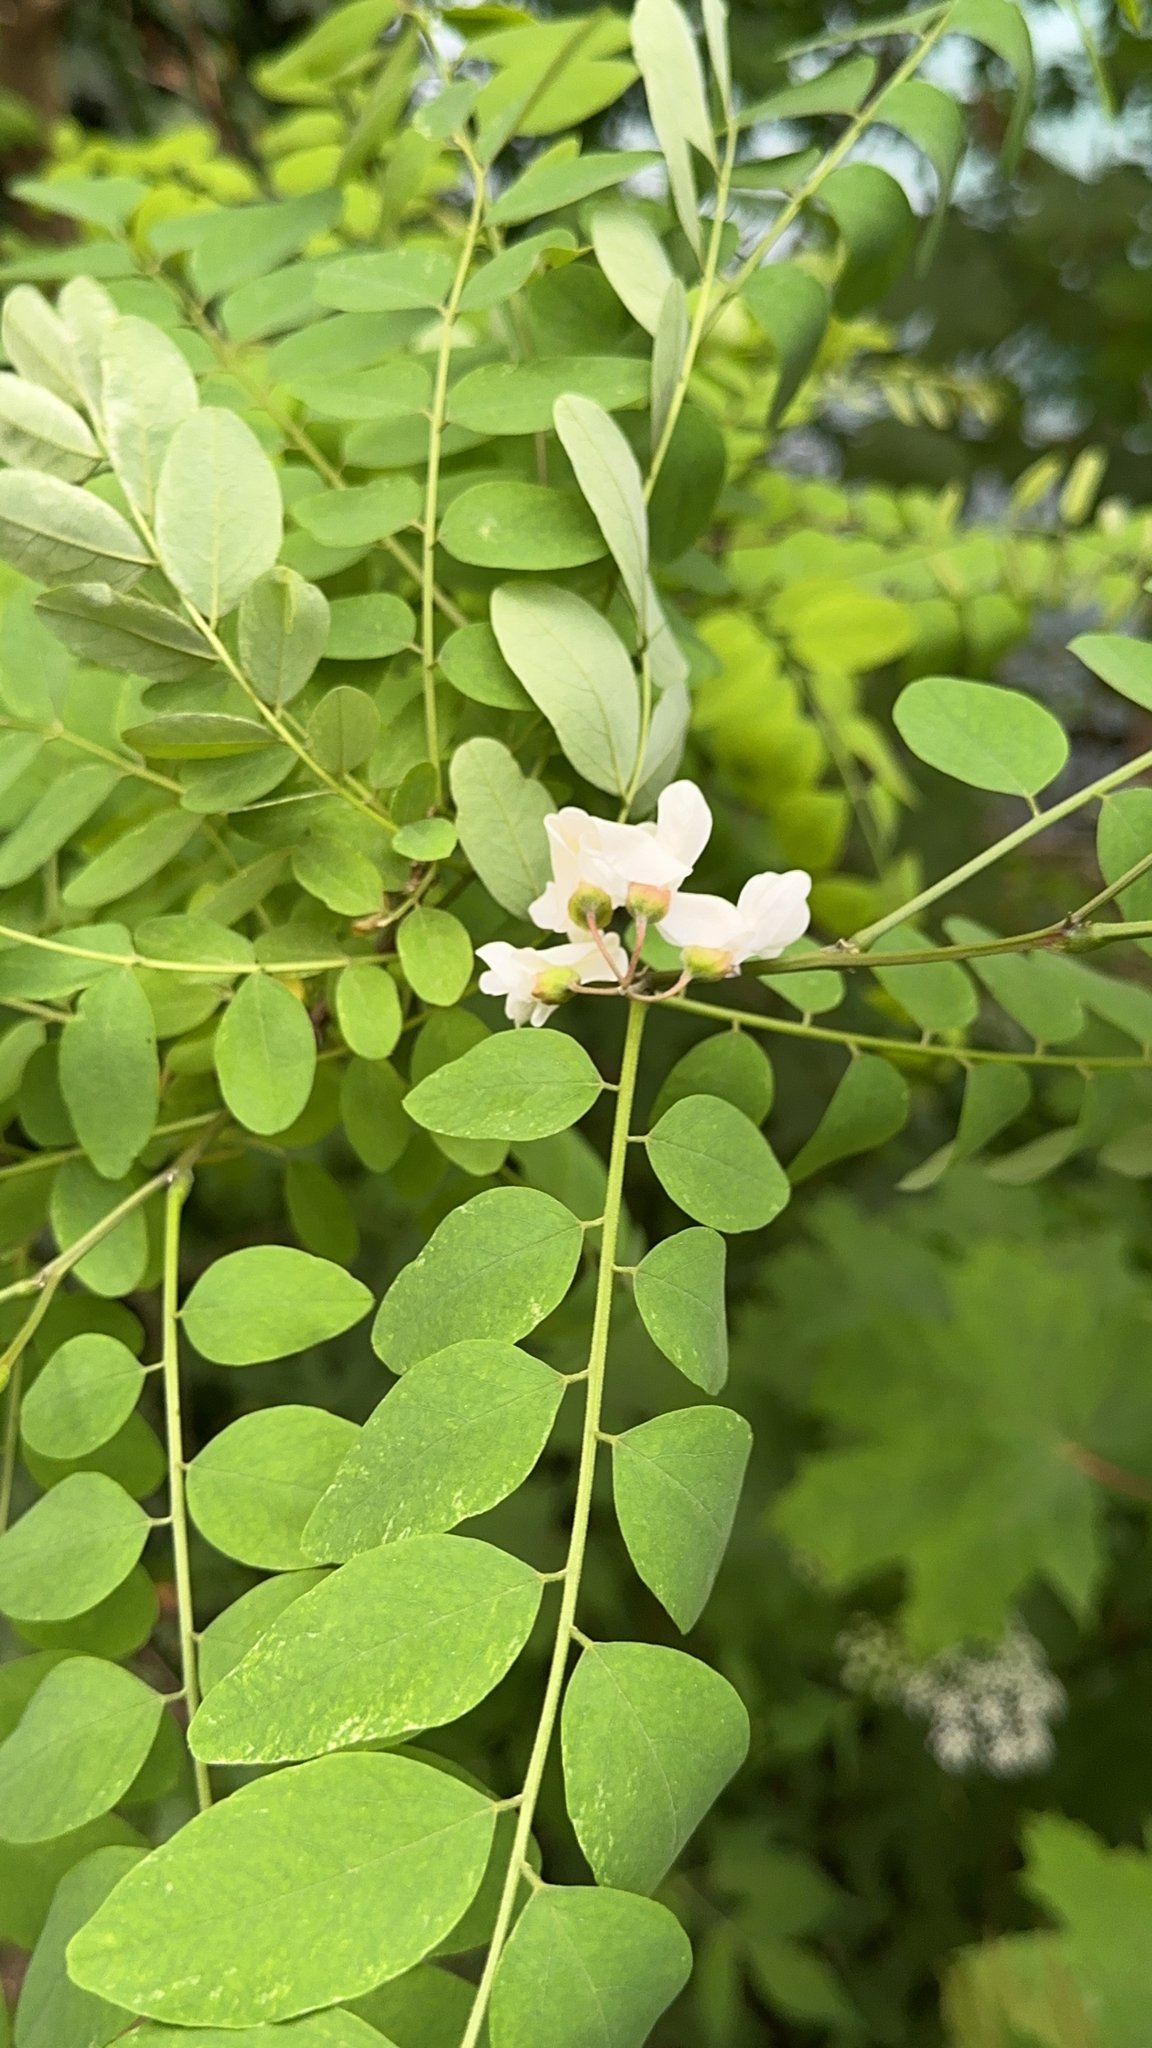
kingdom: Plantae
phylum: Tracheophyta
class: Magnoliopsida
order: Fabales
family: Fabaceae
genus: Robinia
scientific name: Robinia pseudoacacia
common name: Black locust
